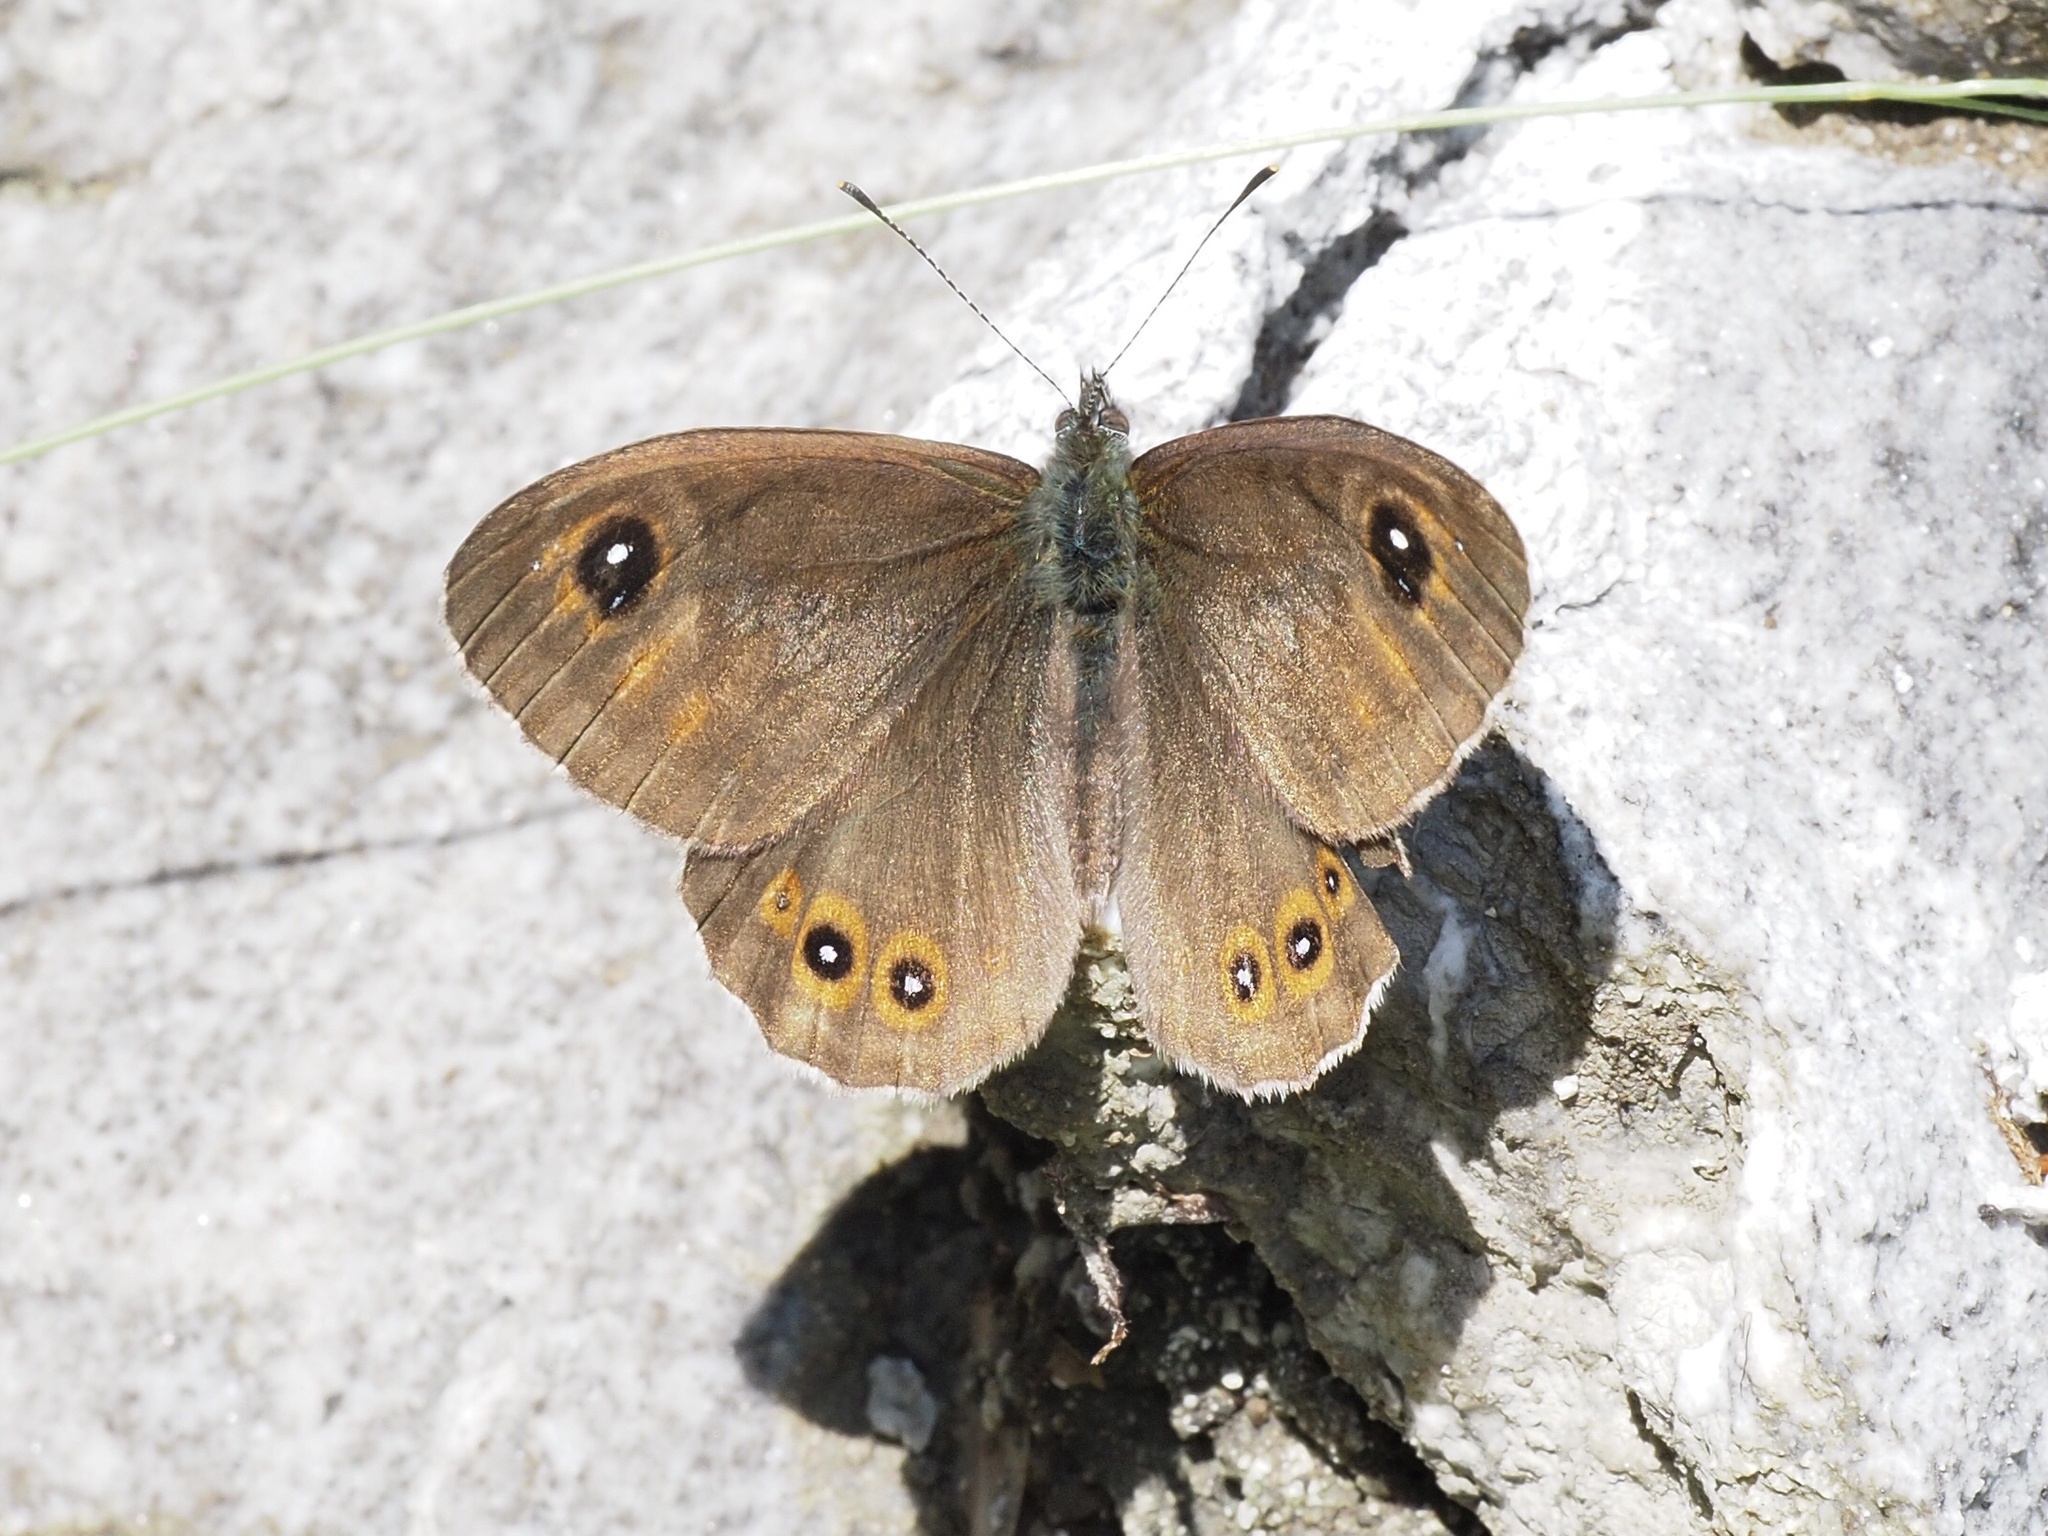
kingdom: Animalia
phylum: Arthropoda
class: Insecta
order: Lepidoptera
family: Nymphalidae
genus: Pararge
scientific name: Pararge Lasiommata maera
